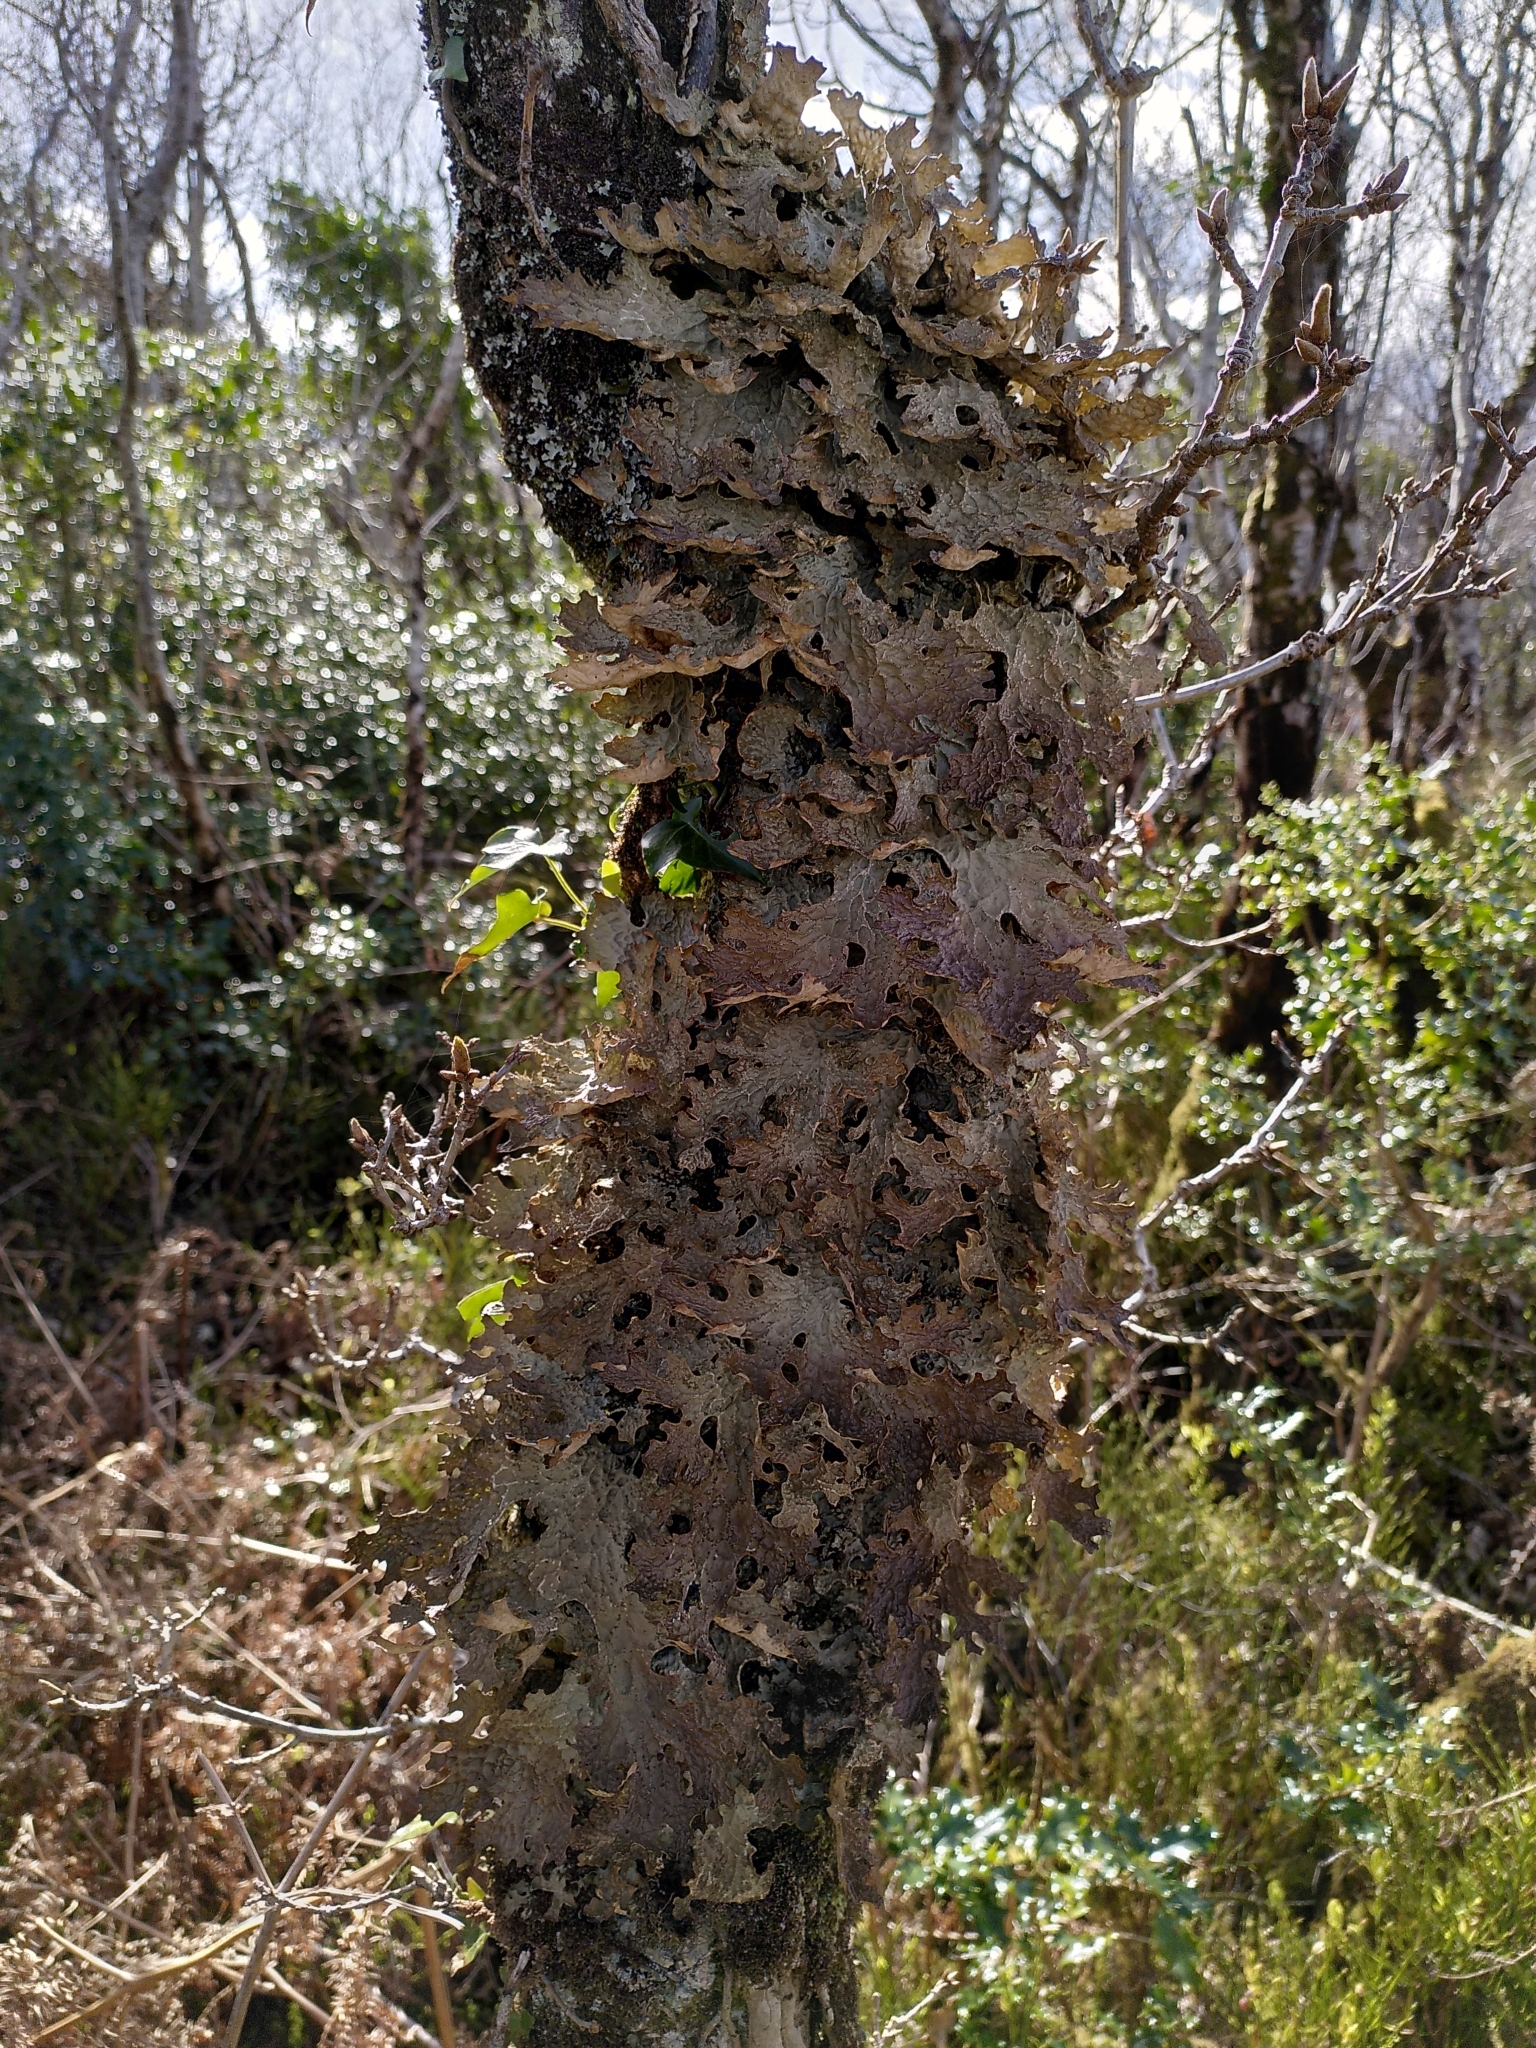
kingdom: Fungi
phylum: Ascomycota
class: Lecanoromycetes
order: Peltigerales
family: Lobariaceae
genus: Lobaria
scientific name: Lobaria pulmonaria
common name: Lungwort
